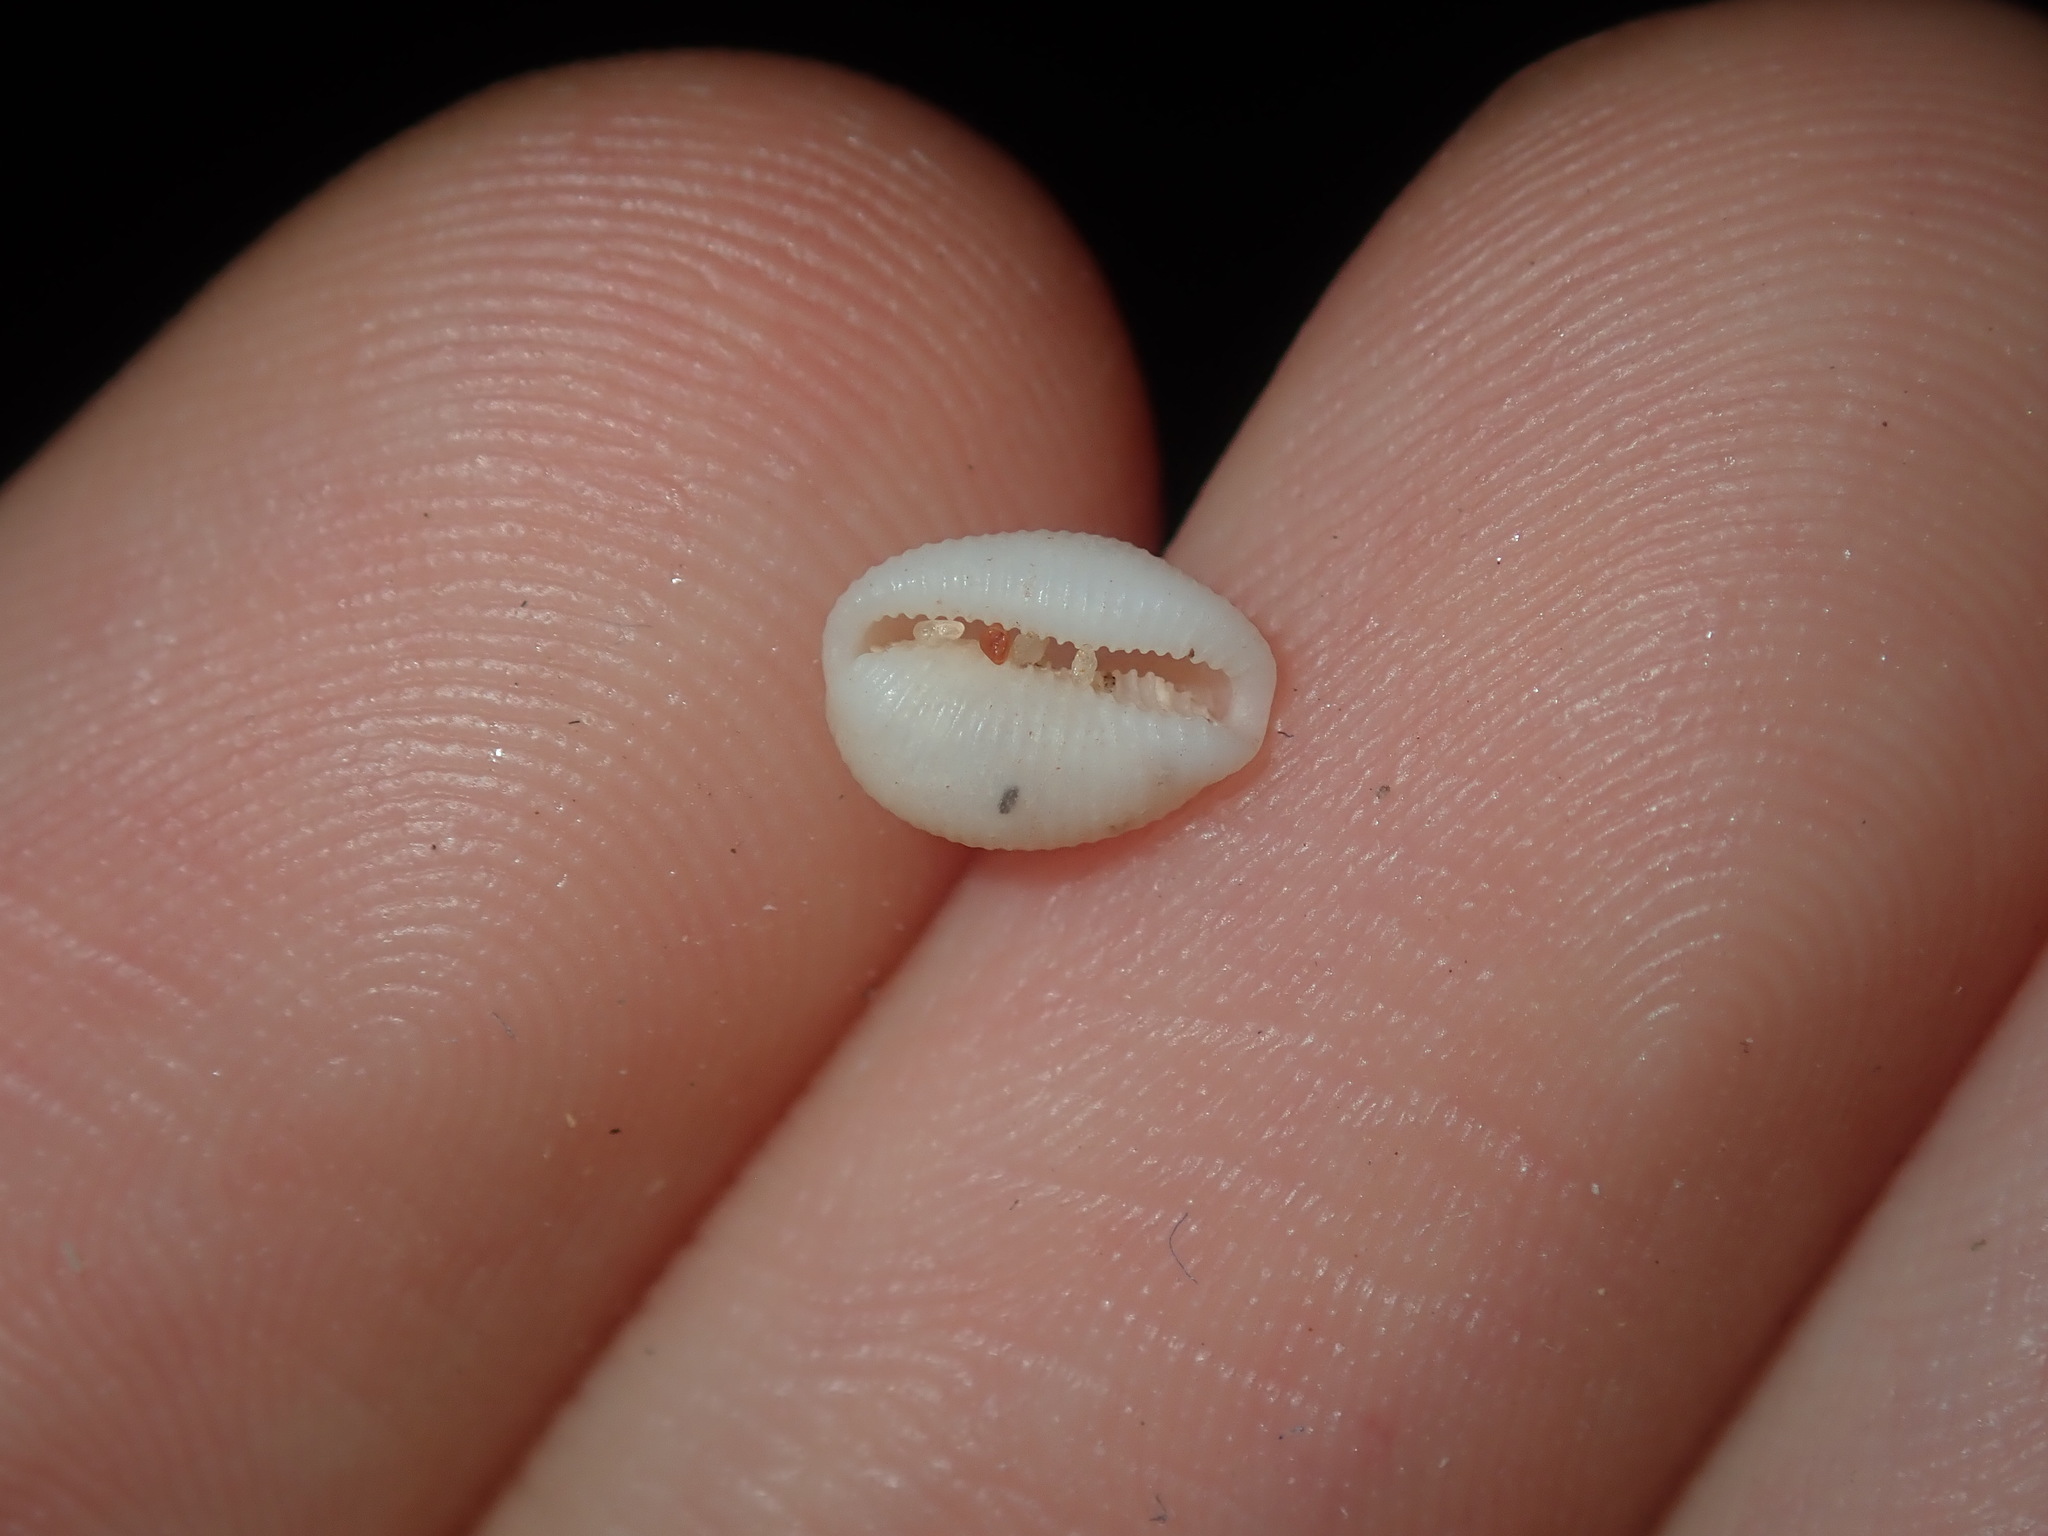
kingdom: Animalia
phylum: Mollusca
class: Gastropoda
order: Littorinimorpha
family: Triviidae
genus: Trivirostra
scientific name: Trivirostra oryza
